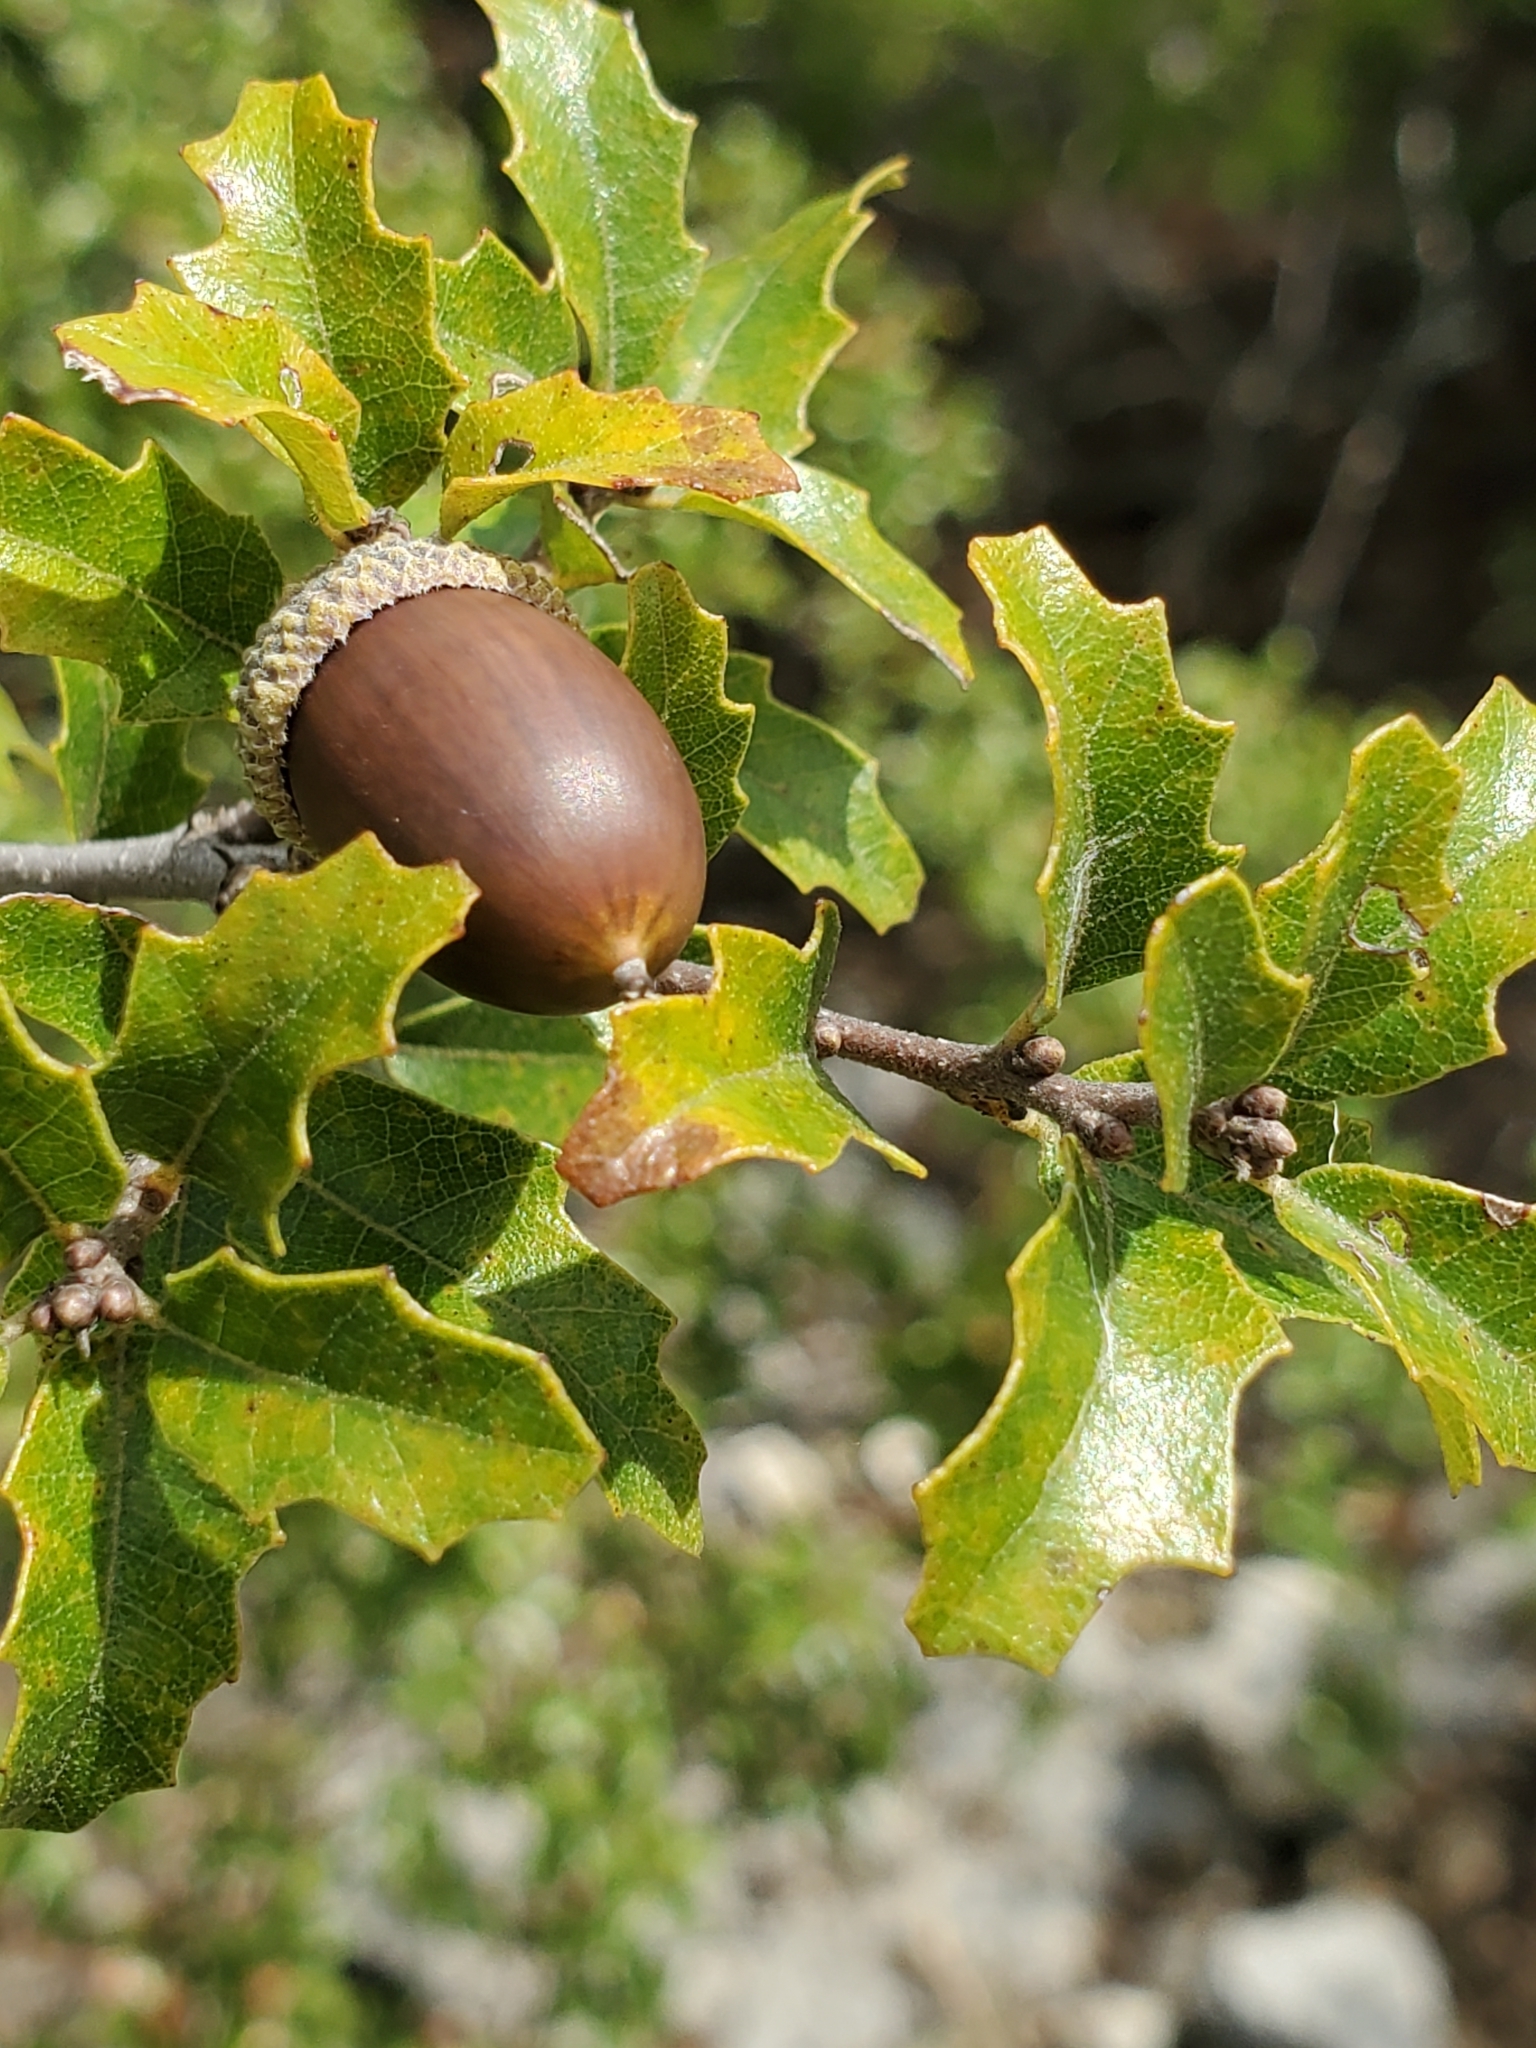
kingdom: Plantae
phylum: Tracheophyta
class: Magnoliopsida
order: Fagales
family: Fagaceae
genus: Quercus
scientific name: Quercus vaseyana
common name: Sandpaper oak
